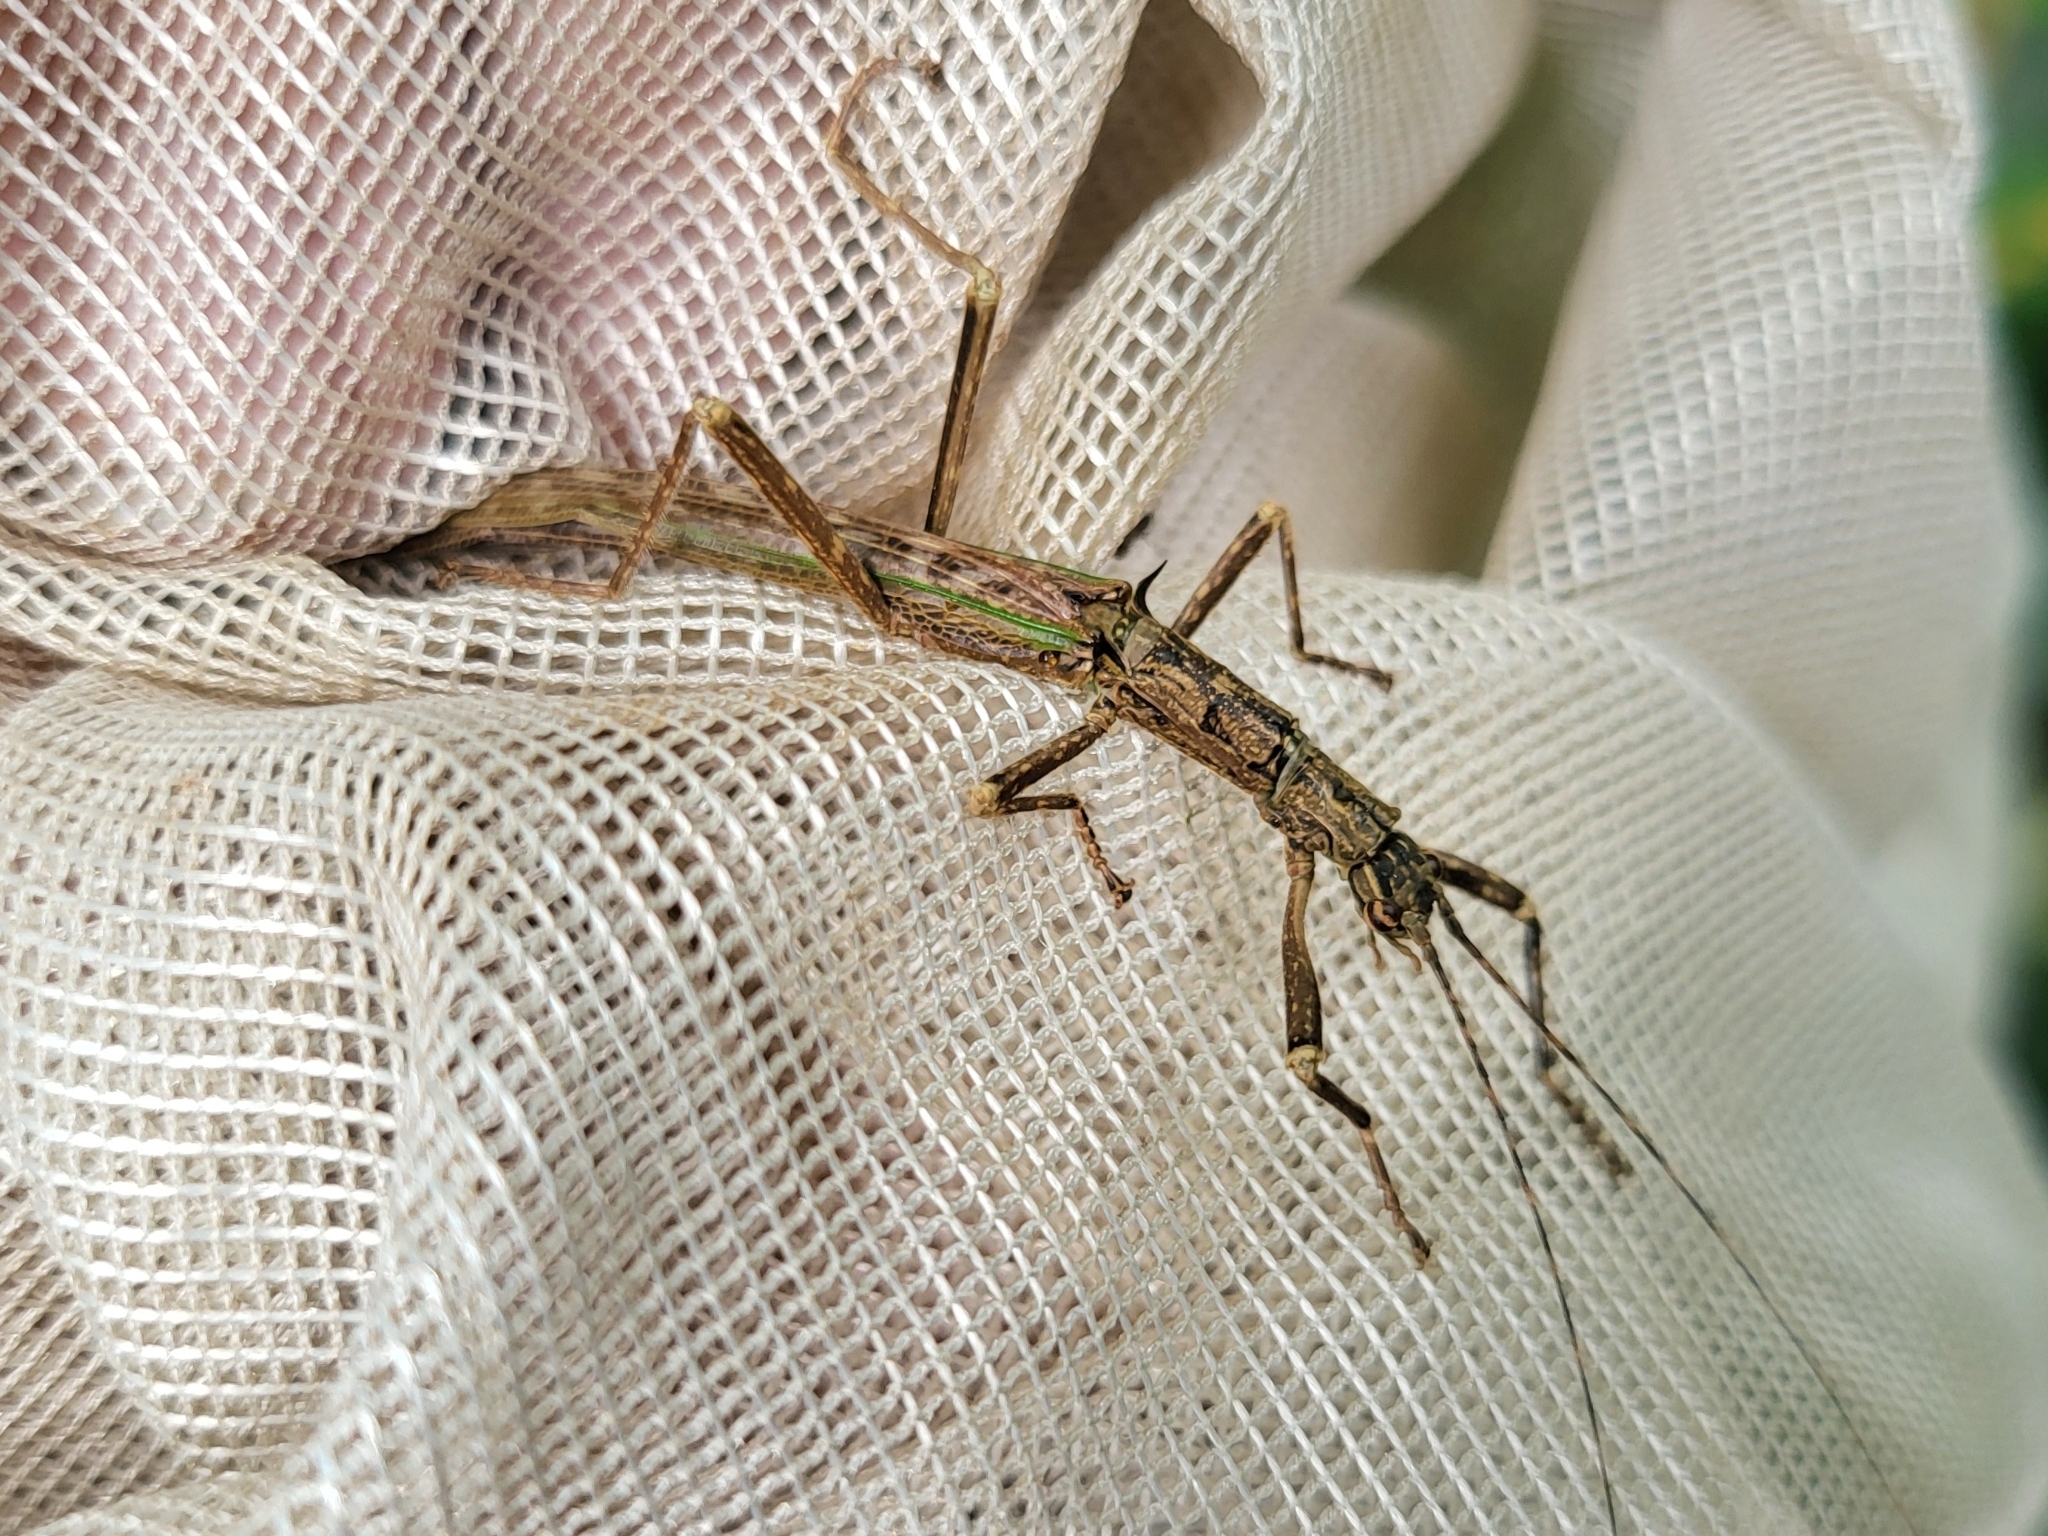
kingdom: Animalia
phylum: Arthropoda
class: Insecta
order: Phasmida
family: Aschiphasmatidae
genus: Presbistus
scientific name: Presbistus peleus
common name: Green striped flying stick
